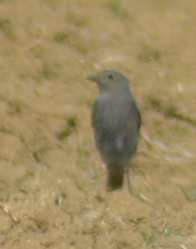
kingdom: Animalia
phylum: Chordata
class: Aves
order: Passeriformes
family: Muscicapidae
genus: Phoenicurus
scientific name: Phoenicurus ochruros
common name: Black redstart
